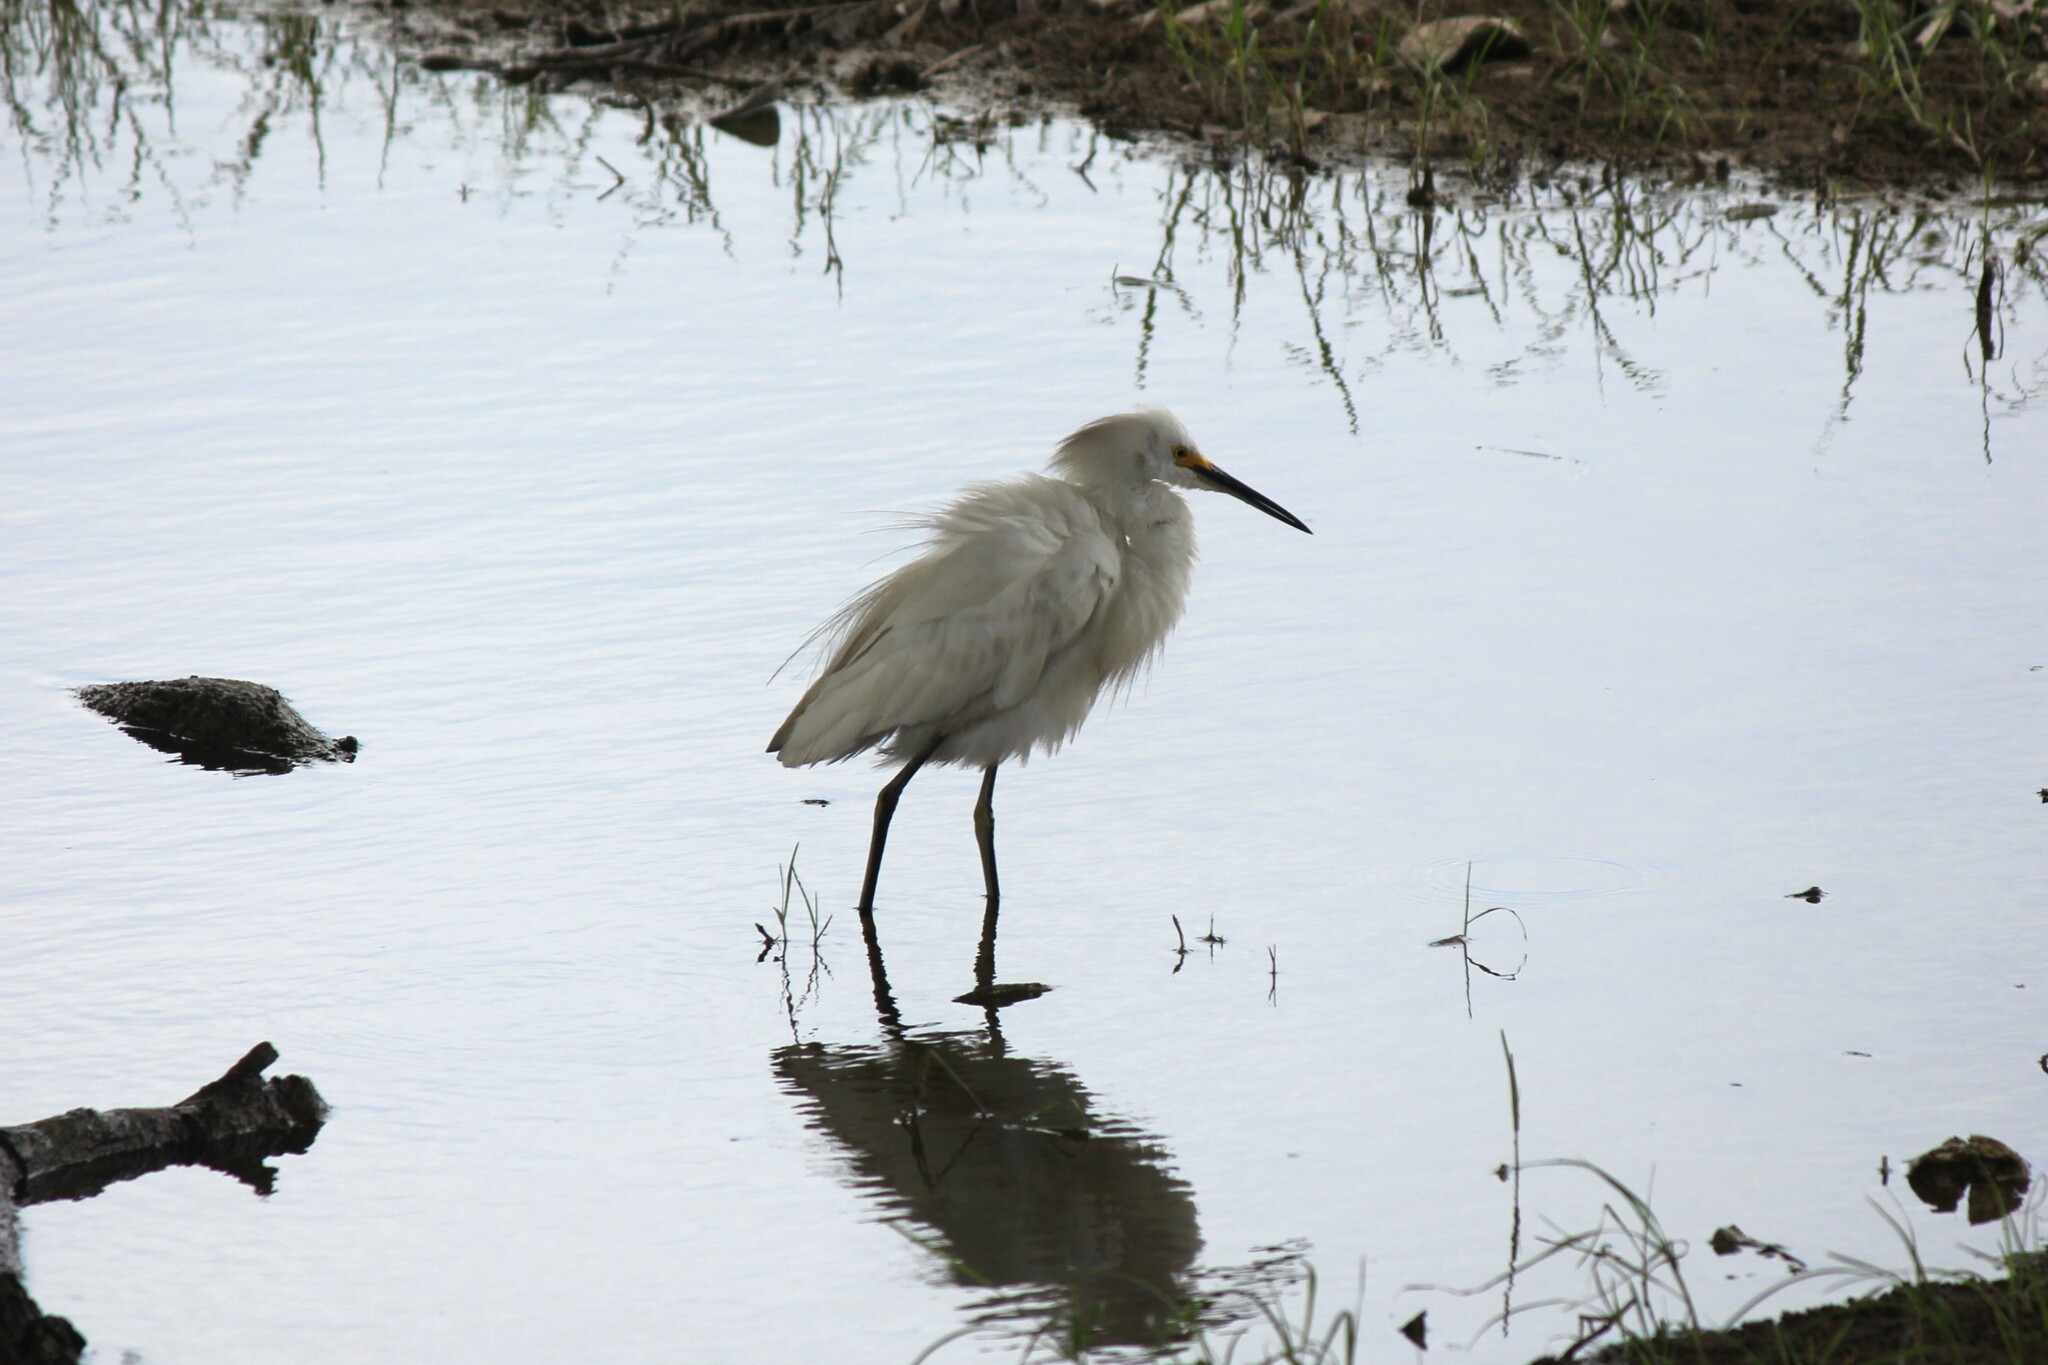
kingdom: Animalia
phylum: Chordata
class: Aves
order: Pelecaniformes
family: Ardeidae
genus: Egretta
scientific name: Egretta thula
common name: Snowy egret
